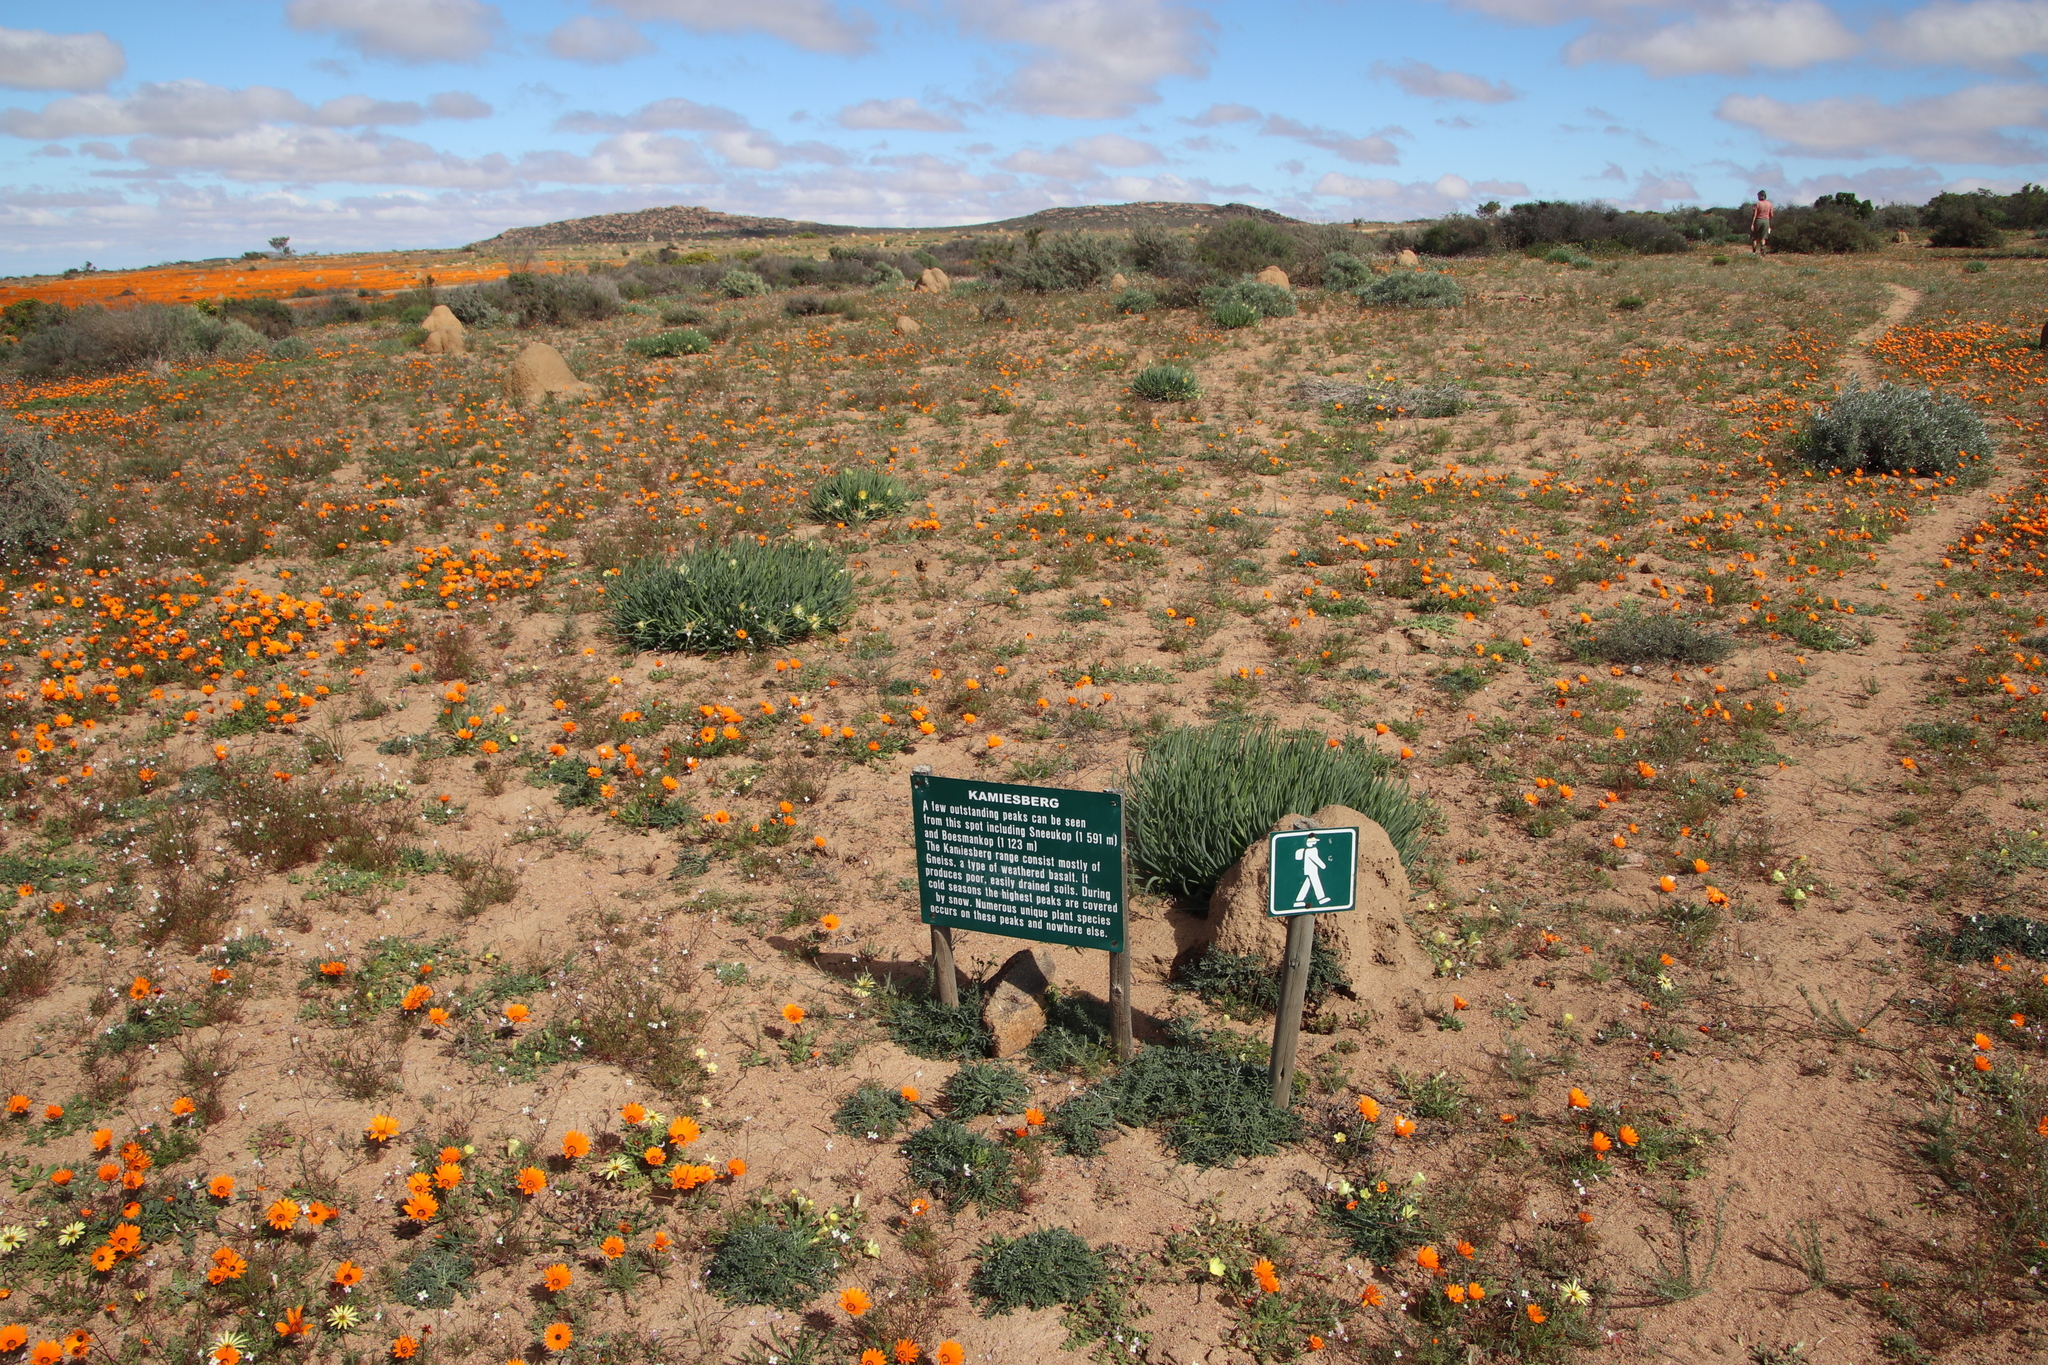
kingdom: Plantae
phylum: Tracheophyta
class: Magnoliopsida
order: Asterales
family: Asteraceae
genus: Dimorphotheca
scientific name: Dimorphotheca sinuata
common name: Glandular cape marigold
